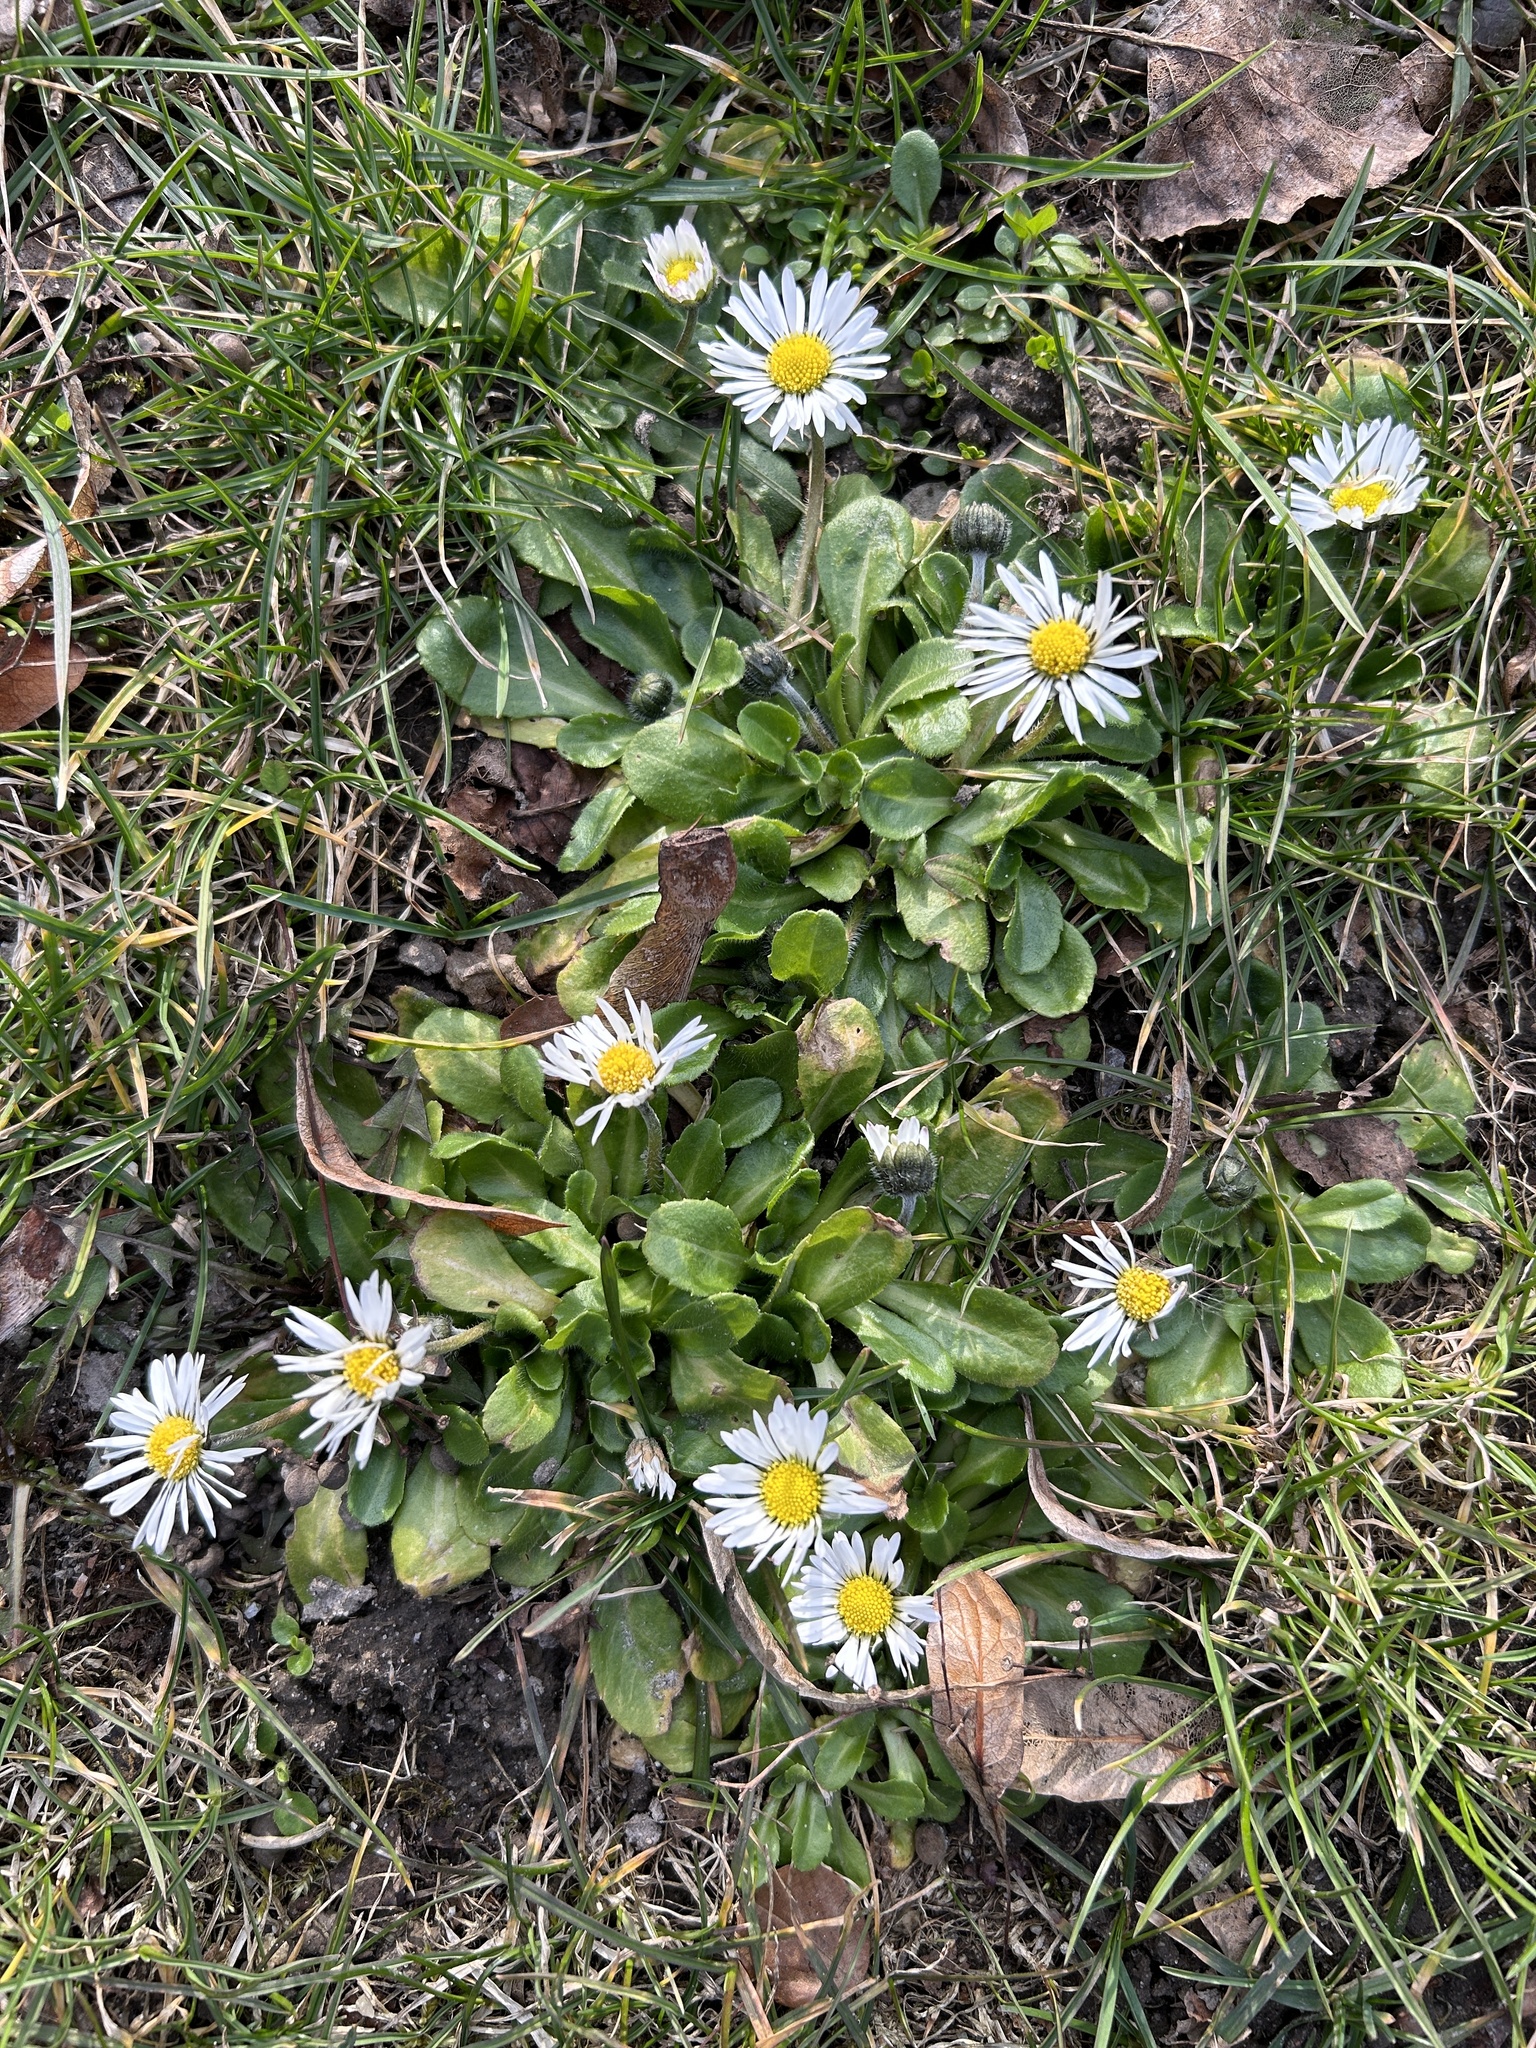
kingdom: Plantae
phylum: Tracheophyta
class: Magnoliopsida
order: Asterales
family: Asteraceae
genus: Bellis
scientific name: Bellis perennis
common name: Lawndaisy
